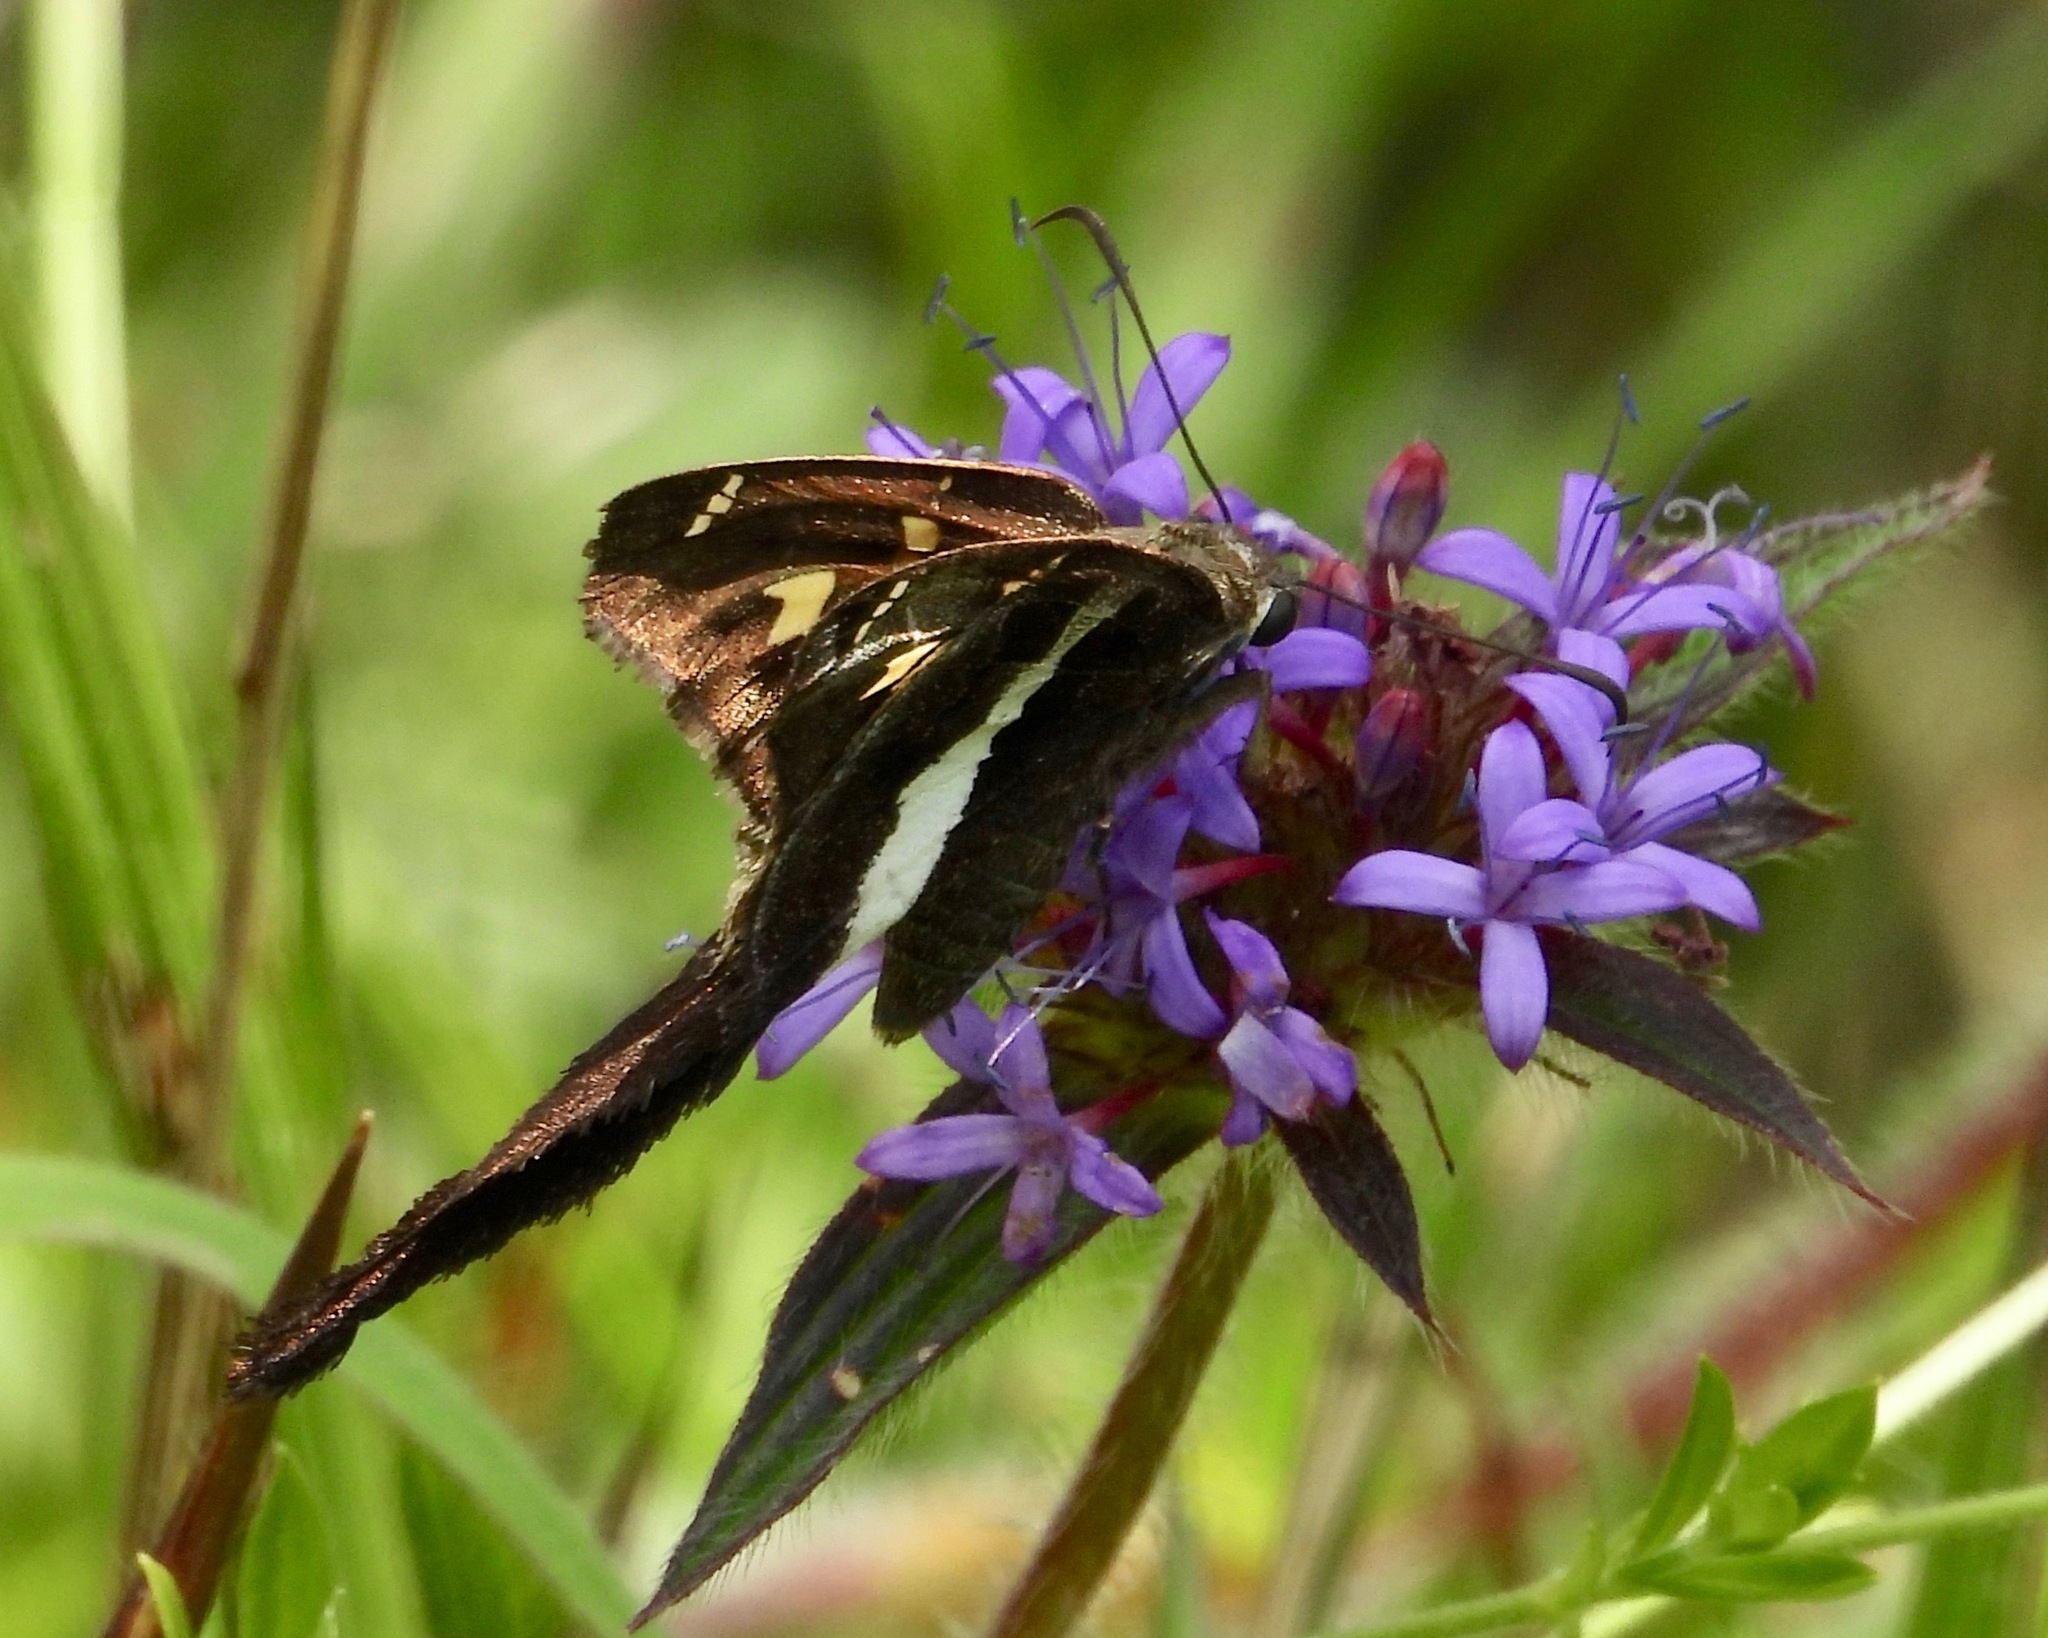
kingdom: Animalia
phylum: Arthropoda
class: Insecta
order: Lepidoptera
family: Hesperiidae
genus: Chioides
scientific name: Chioides catillus
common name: Silverbanded skipper
